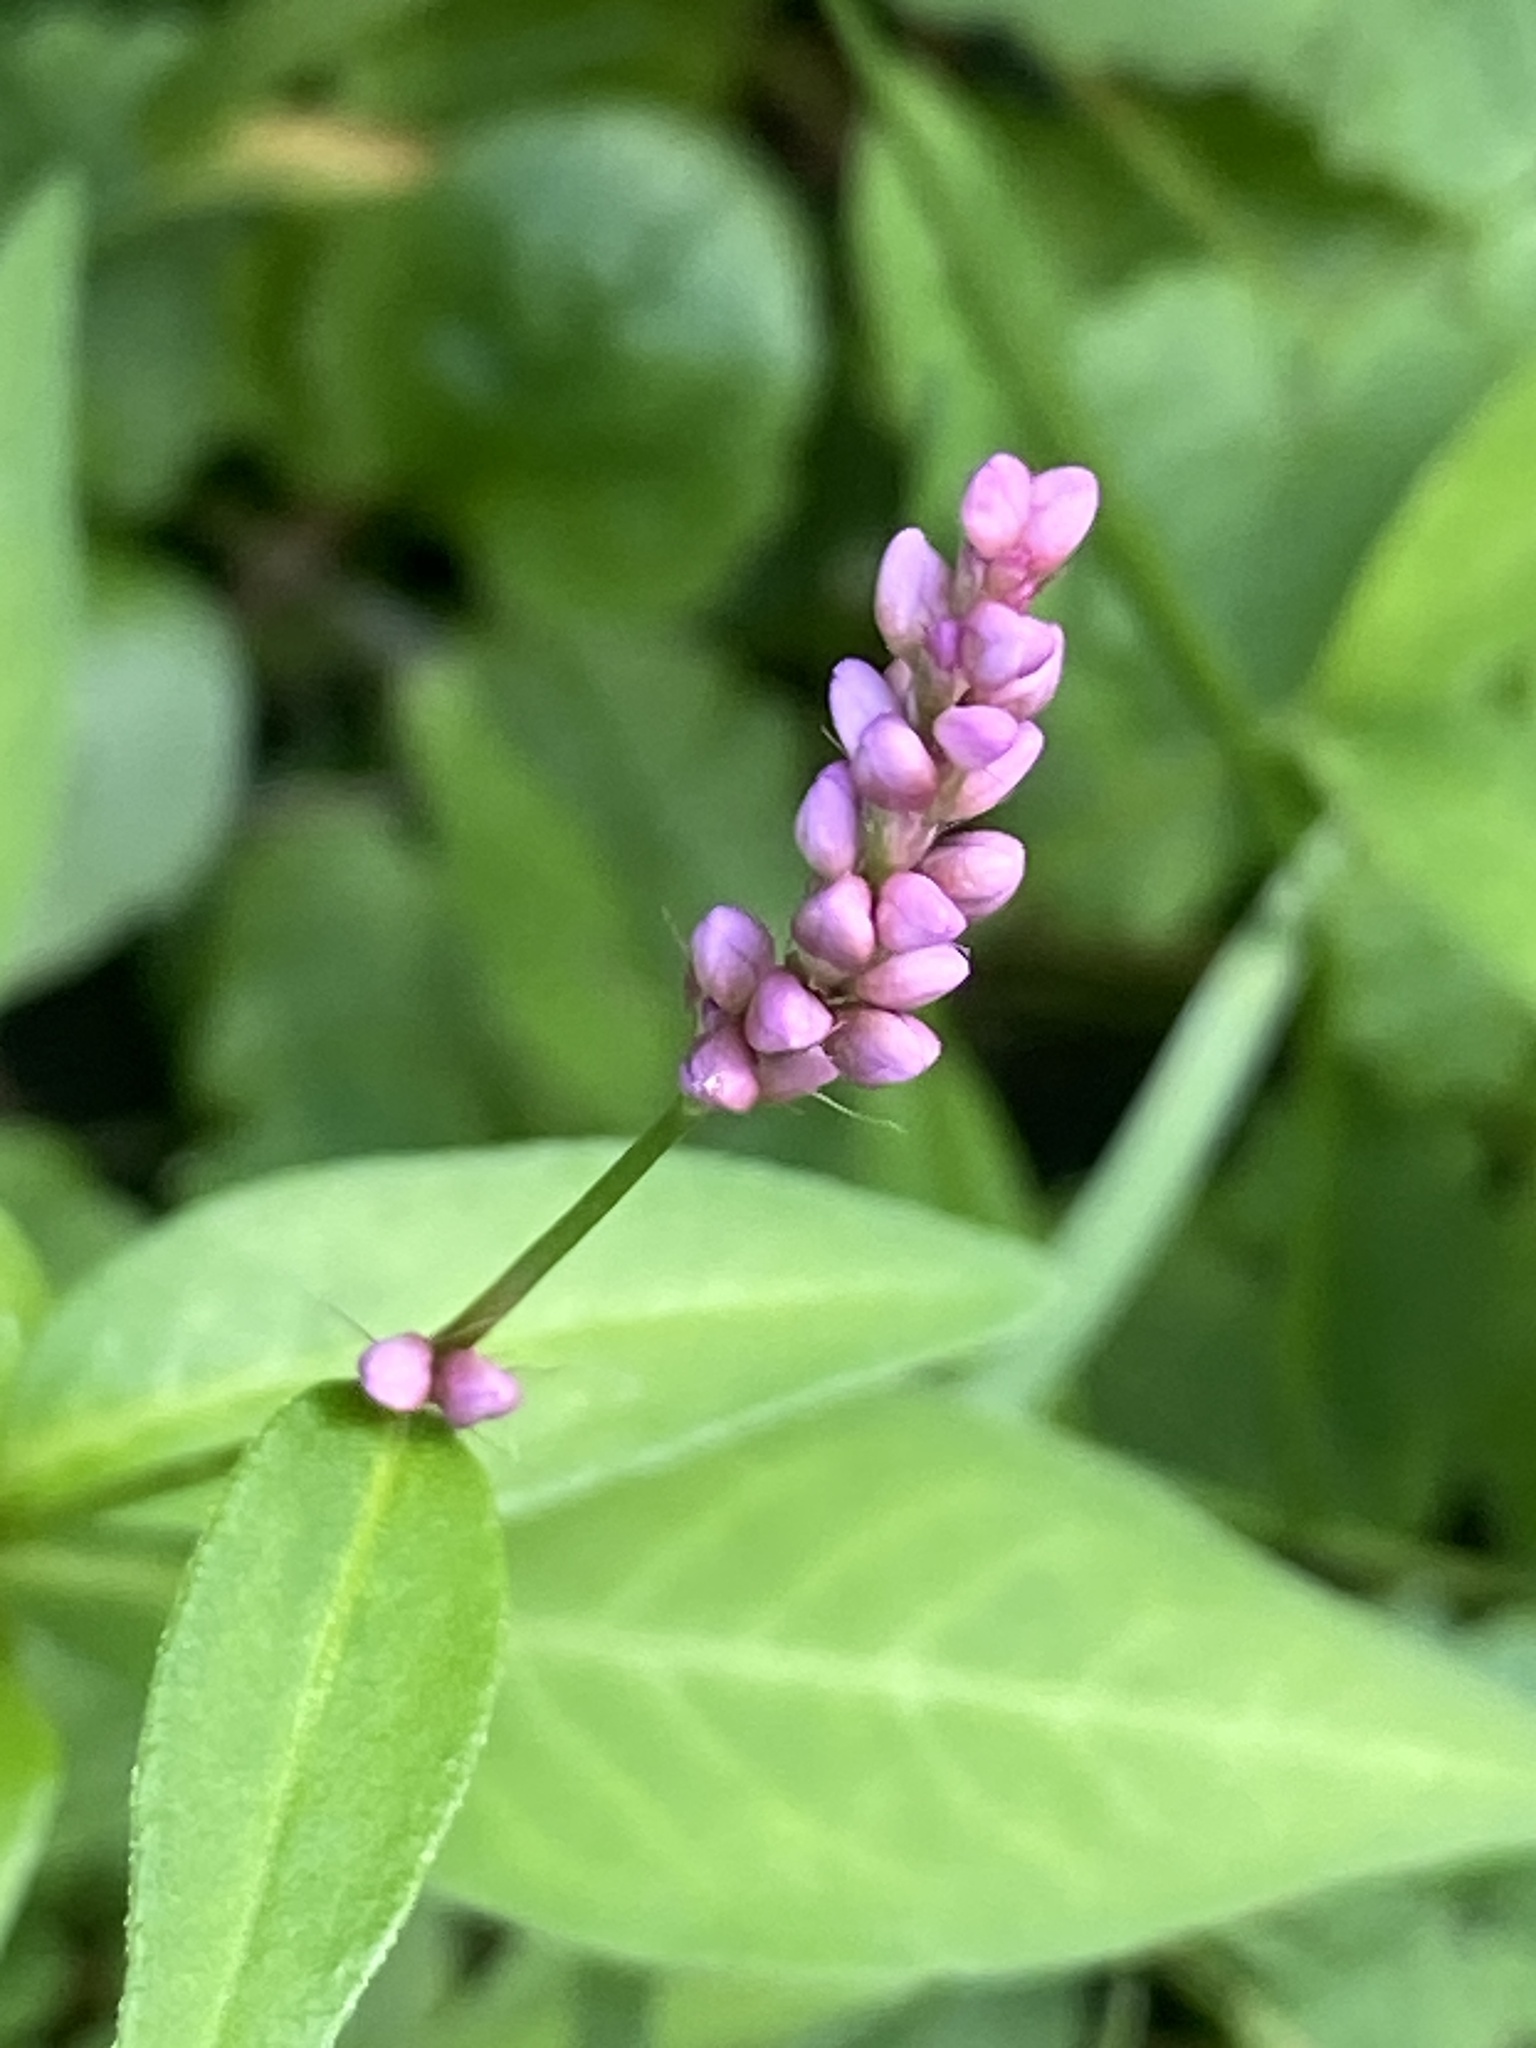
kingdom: Plantae
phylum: Tracheophyta
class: Magnoliopsida
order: Caryophyllales
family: Polygonaceae
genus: Persicaria
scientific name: Persicaria longiseta
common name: Bristly lady's-thumb
